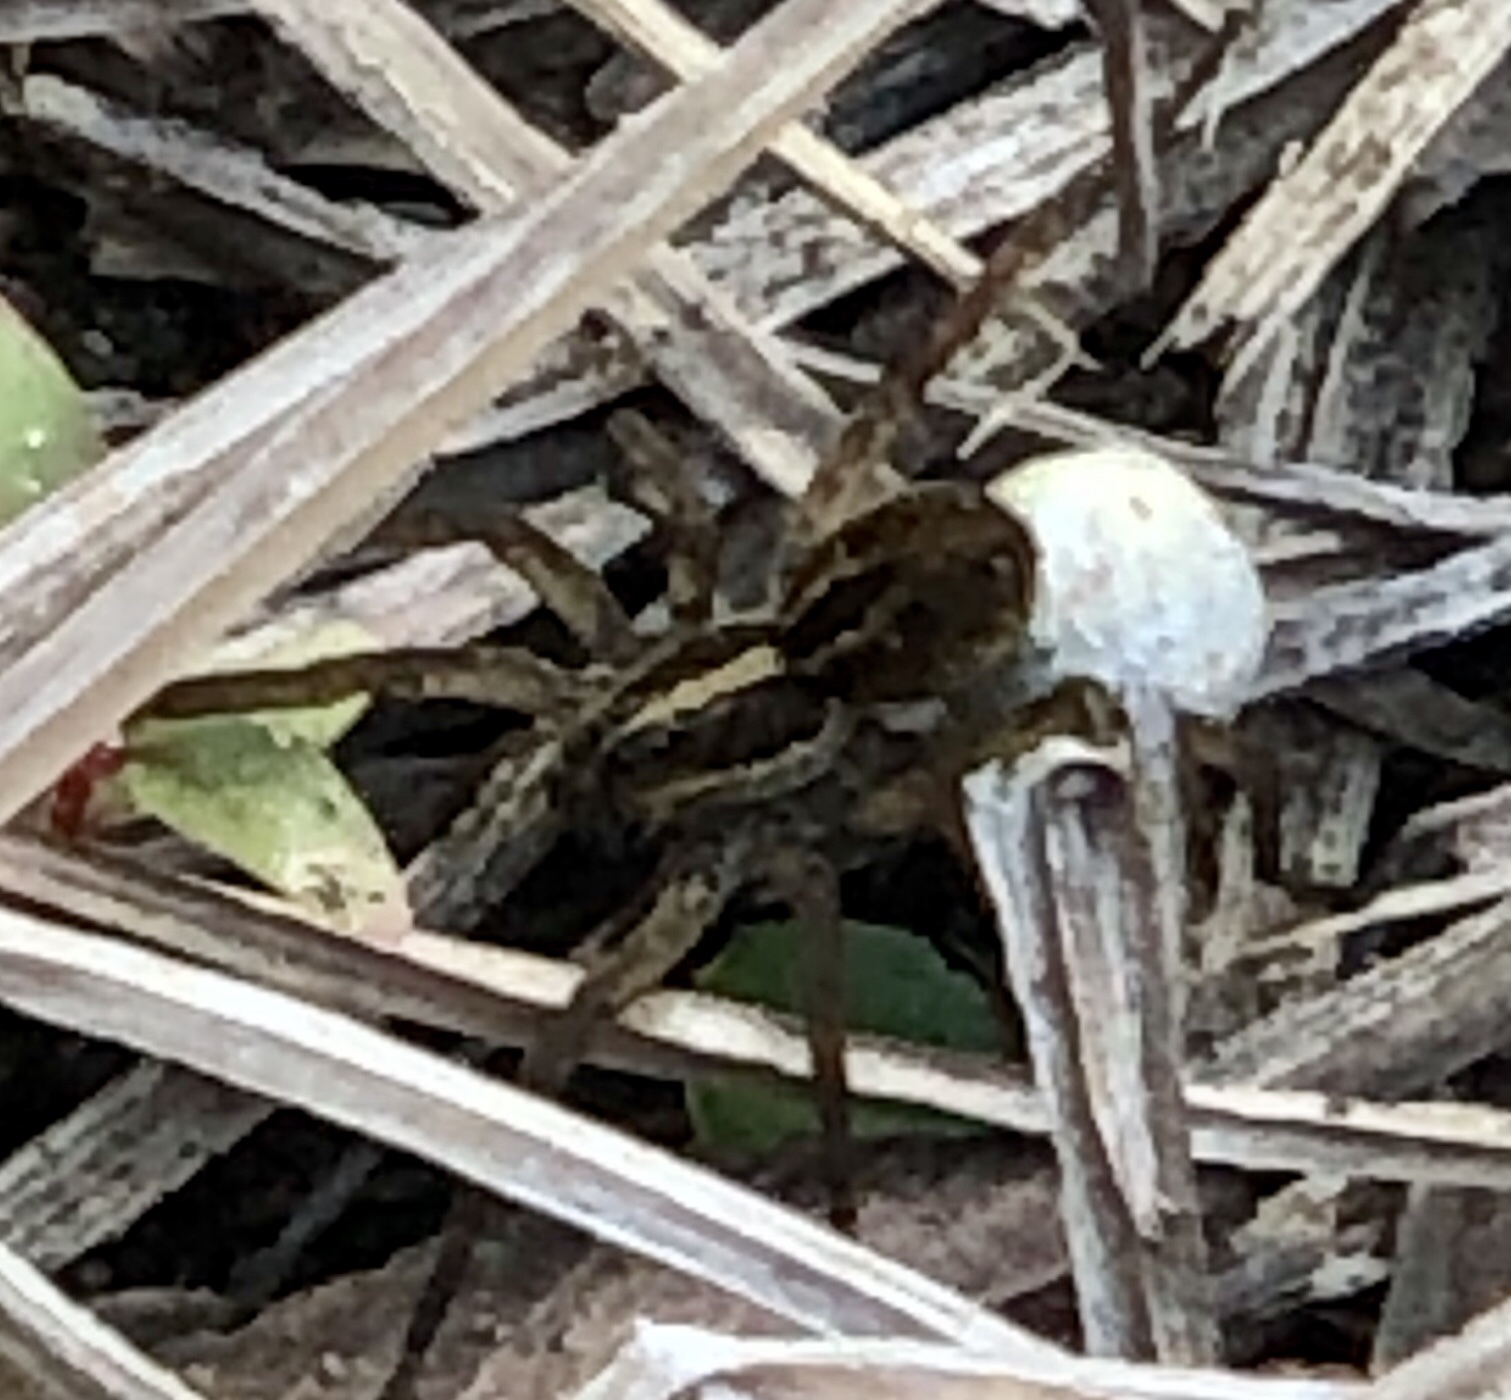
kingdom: Animalia
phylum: Arthropoda
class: Arachnida
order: Araneae
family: Lycosidae
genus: Tigrosa
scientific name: Tigrosa annexa
